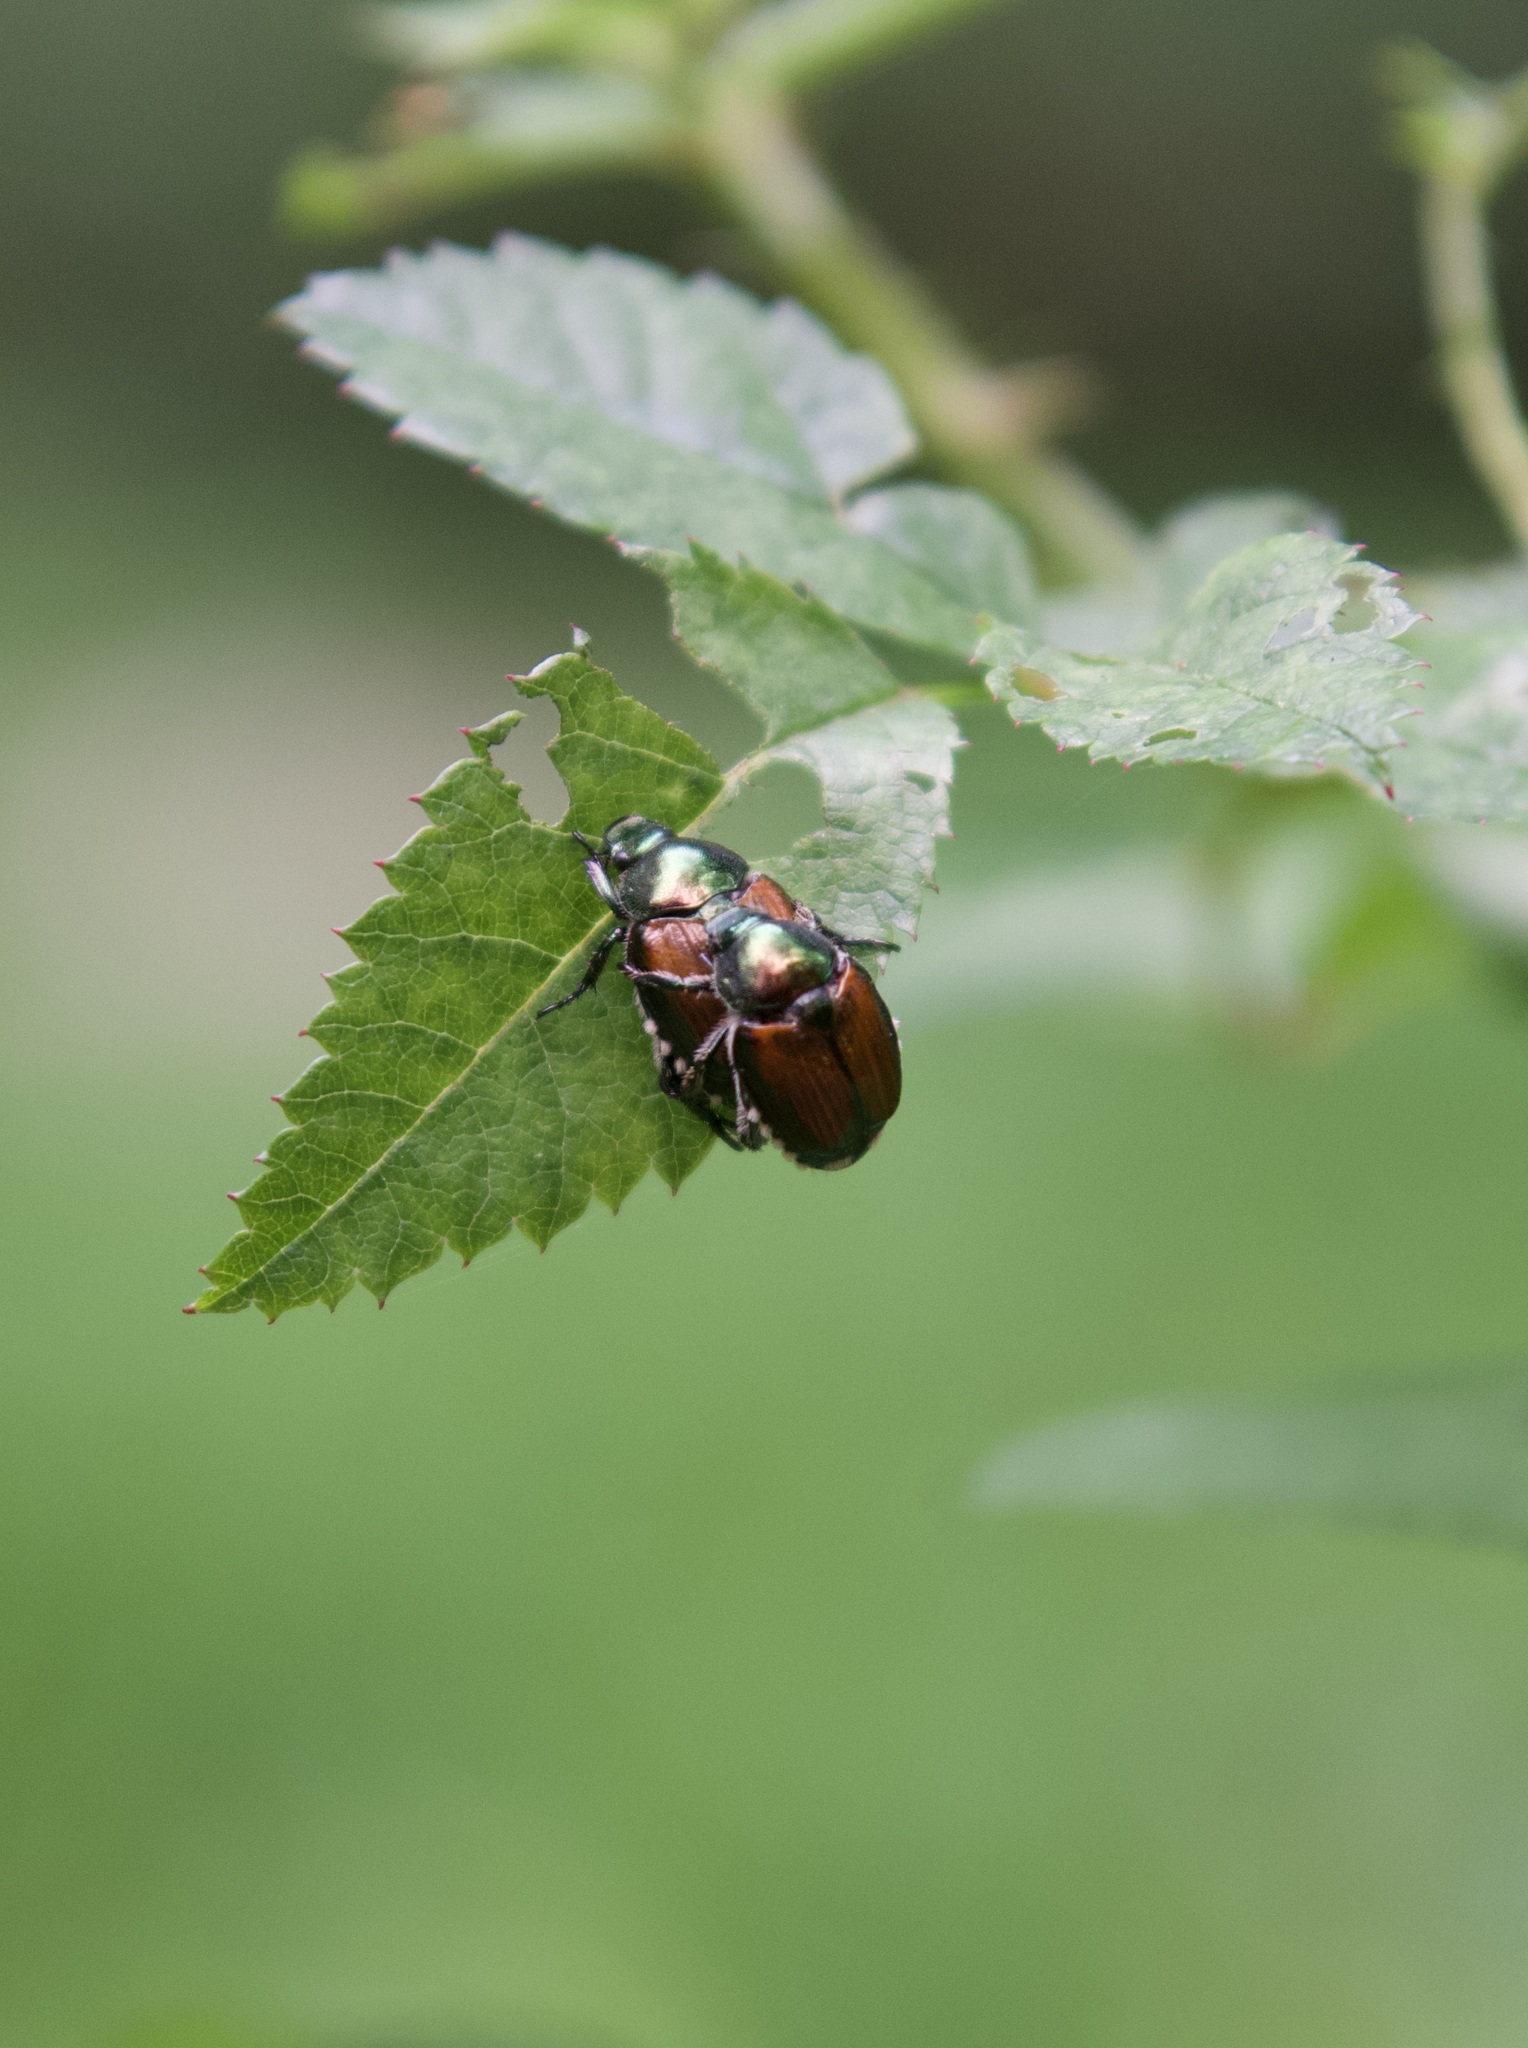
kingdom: Animalia
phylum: Arthropoda
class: Insecta
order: Coleoptera
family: Scarabaeidae
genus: Popillia
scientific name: Popillia japonica
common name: Japanese beetle
